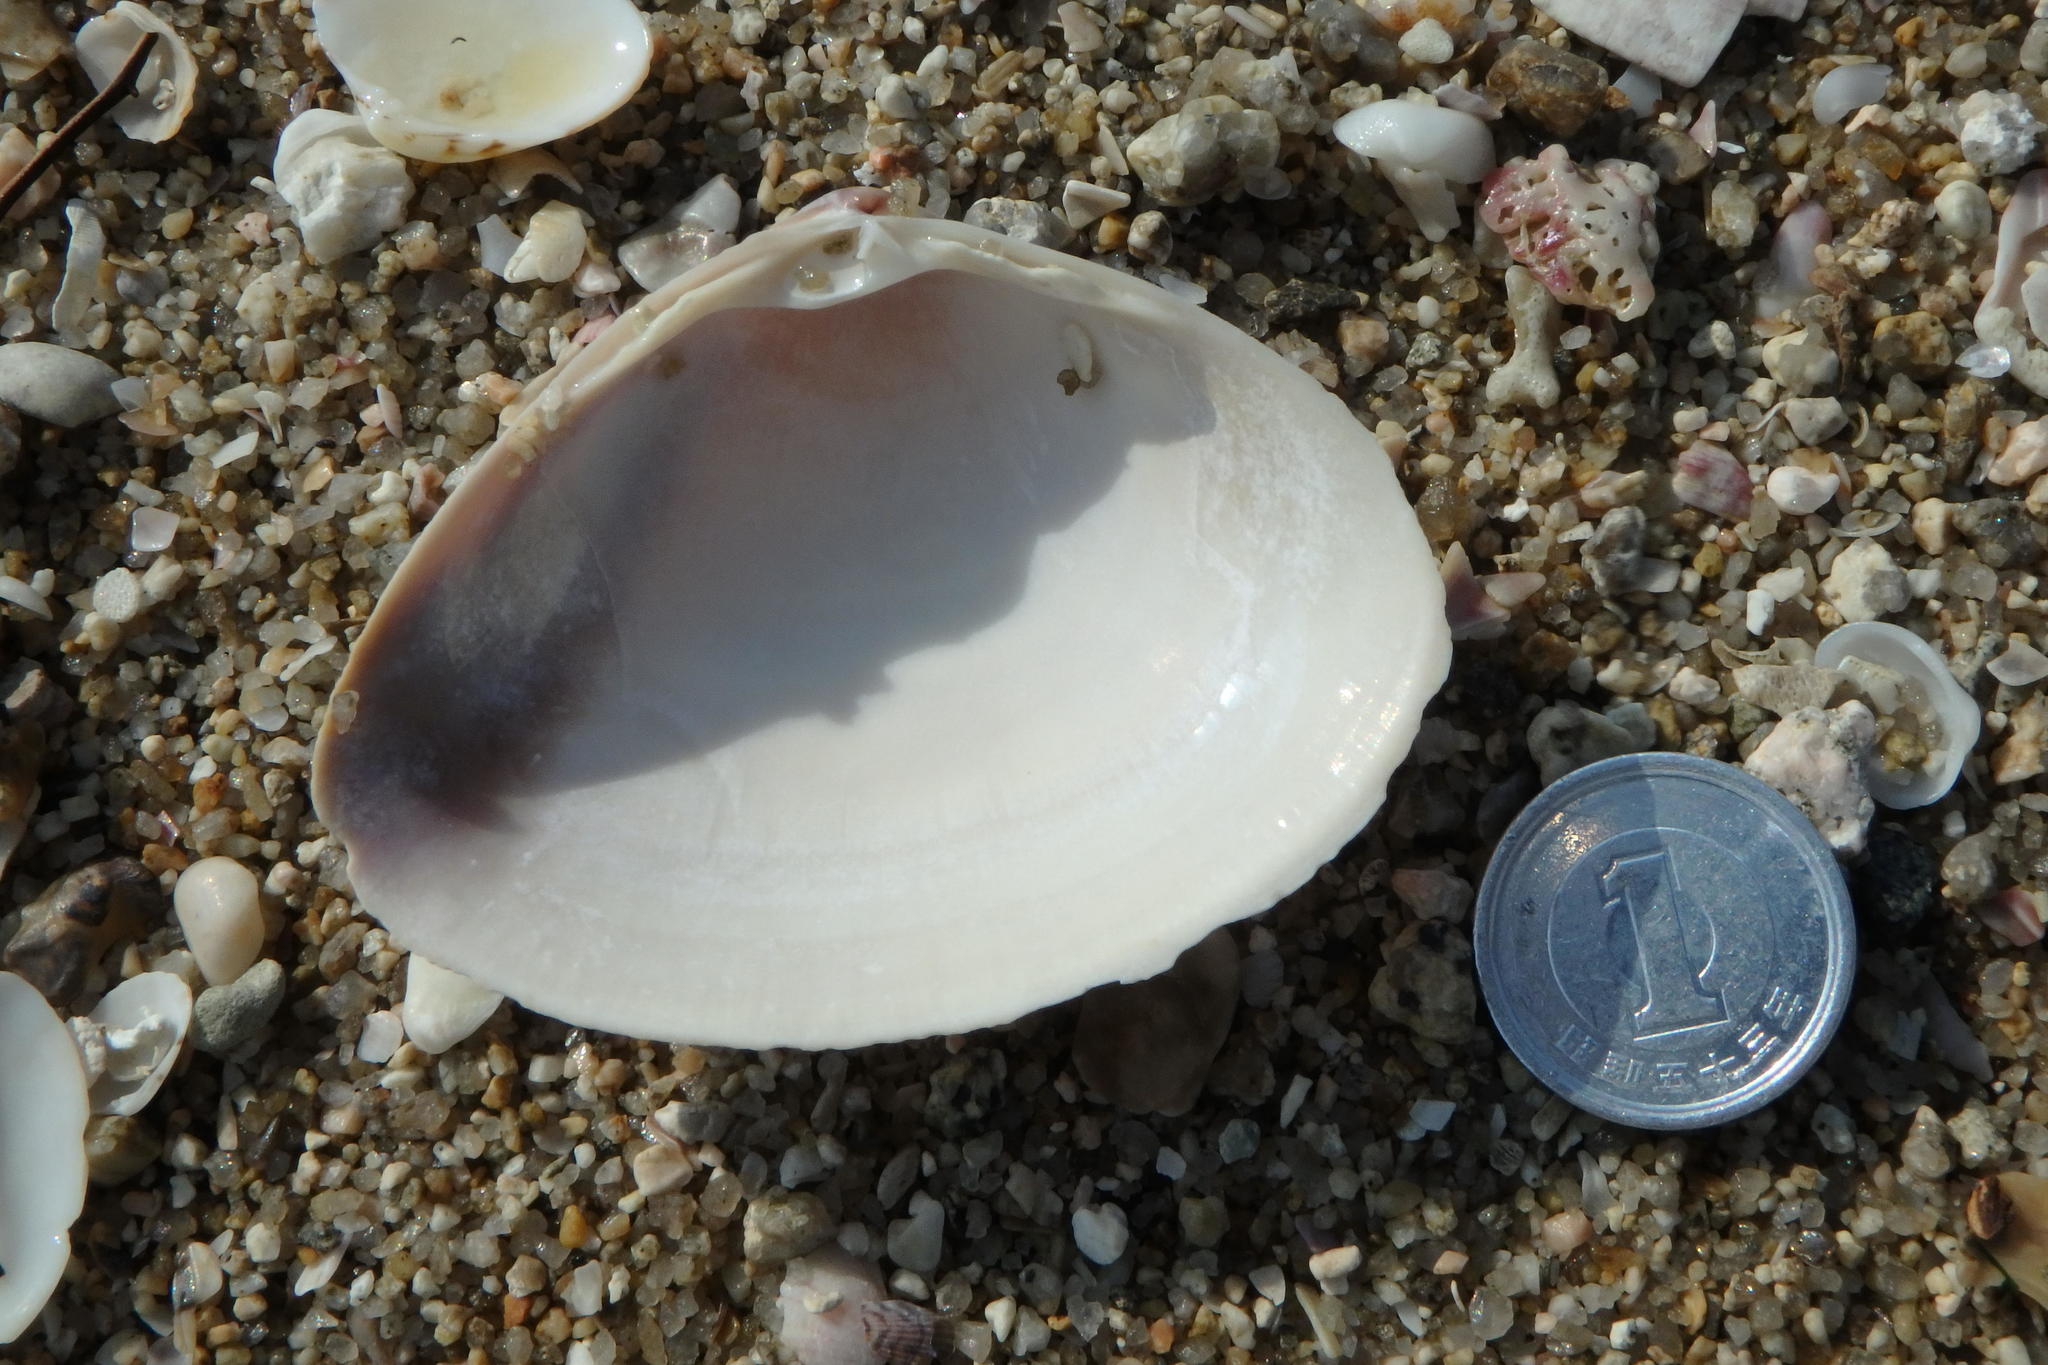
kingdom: Animalia
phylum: Mollusca
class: Bivalvia
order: Venerida
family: Mactridae
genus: Mactra
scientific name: Mactra chinensis
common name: Chinese surf clam
